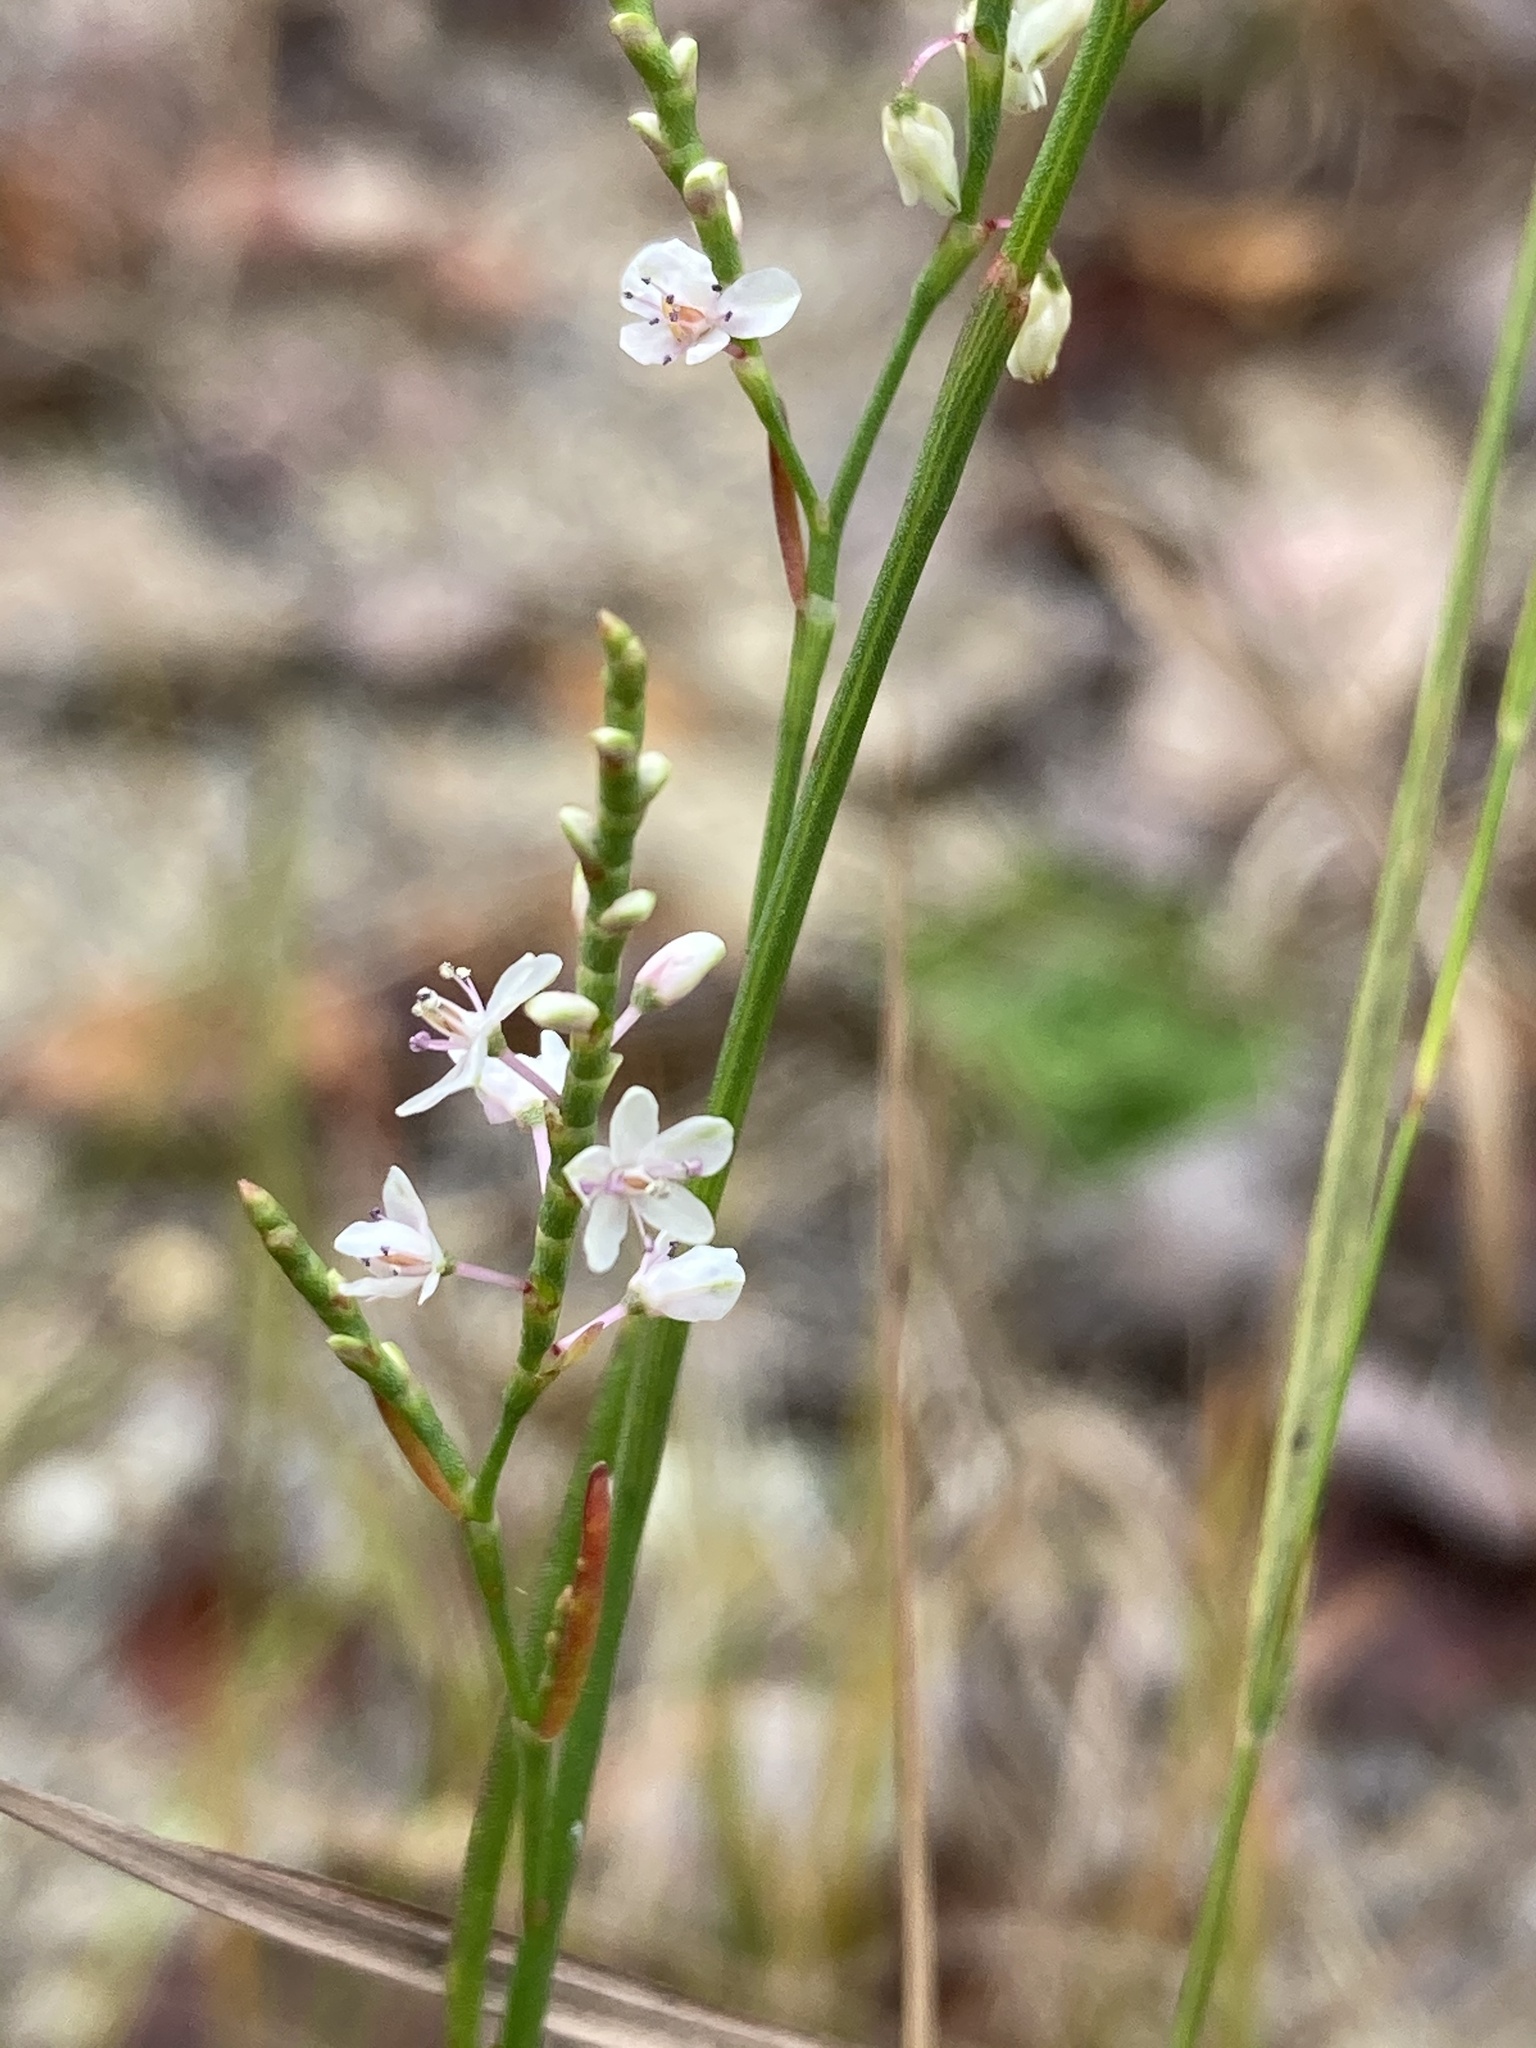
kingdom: Plantae
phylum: Tracheophyta
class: Magnoliopsida
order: Caryophyllales
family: Polygonaceae
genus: Polygonella
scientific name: Polygonella articulata
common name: Coastal jointweed
